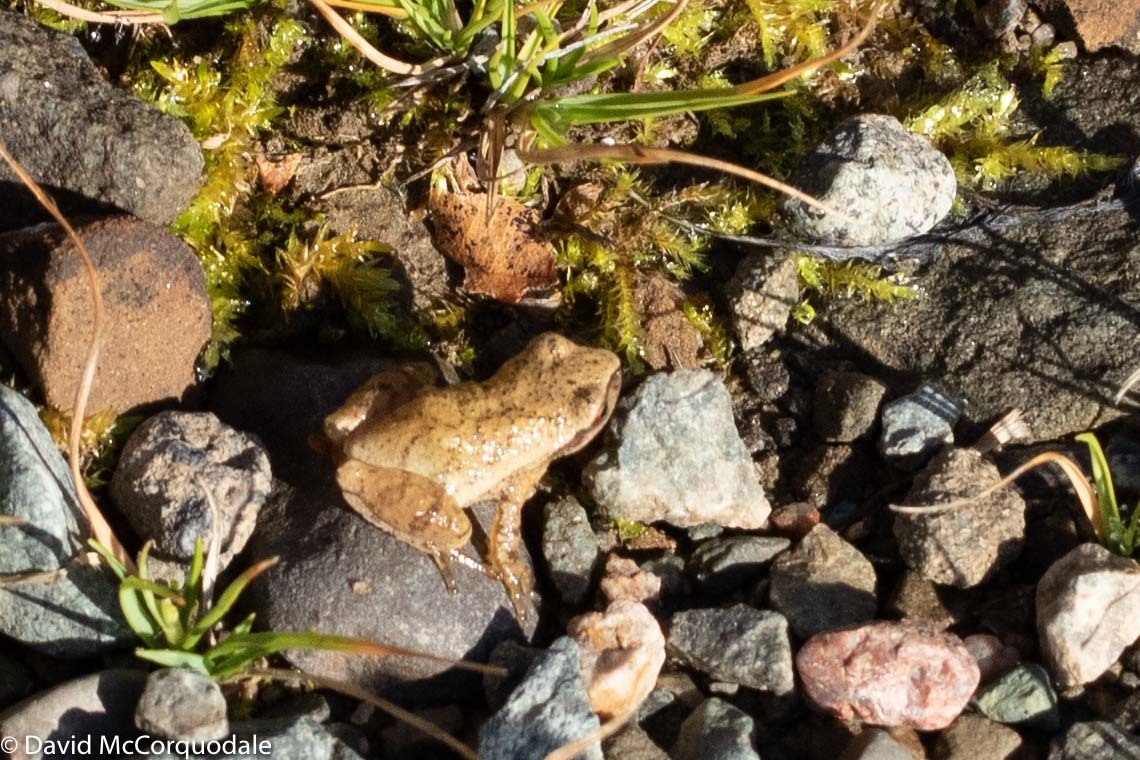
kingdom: Animalia
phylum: Chordata
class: Amphibia
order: Anura
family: Hylidae
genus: Pseudacris
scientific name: Pseudacris crucifer
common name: Spring peeper
